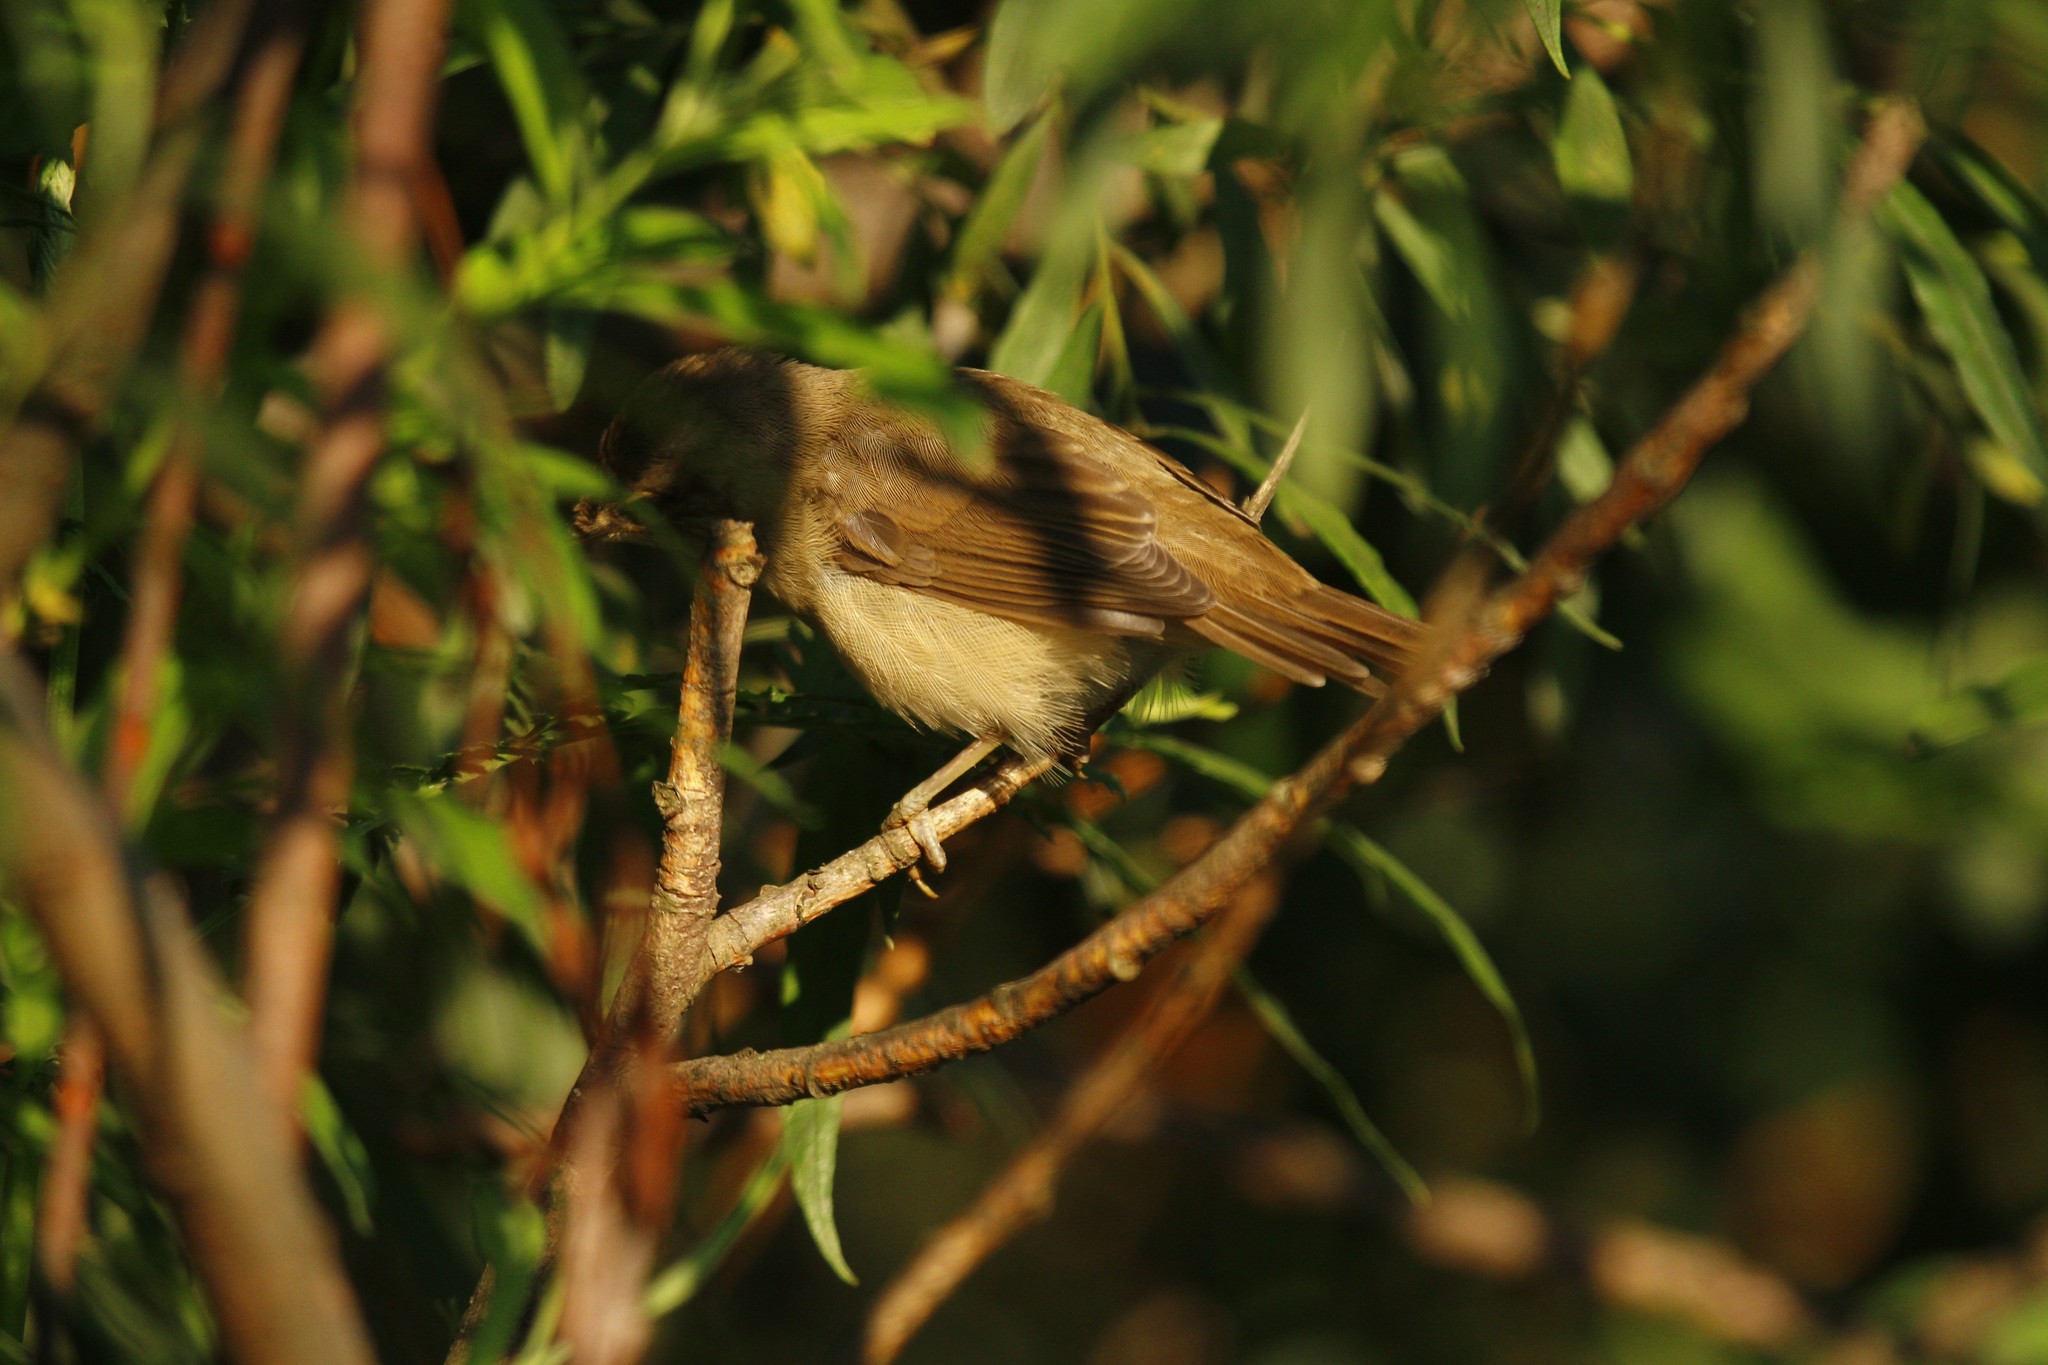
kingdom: Animalia
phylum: Chordata
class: Aves
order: Passeriformes
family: Acrocephalidae
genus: Acrocephalus
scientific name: Acrocephalus palustris
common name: Marsh warbler
